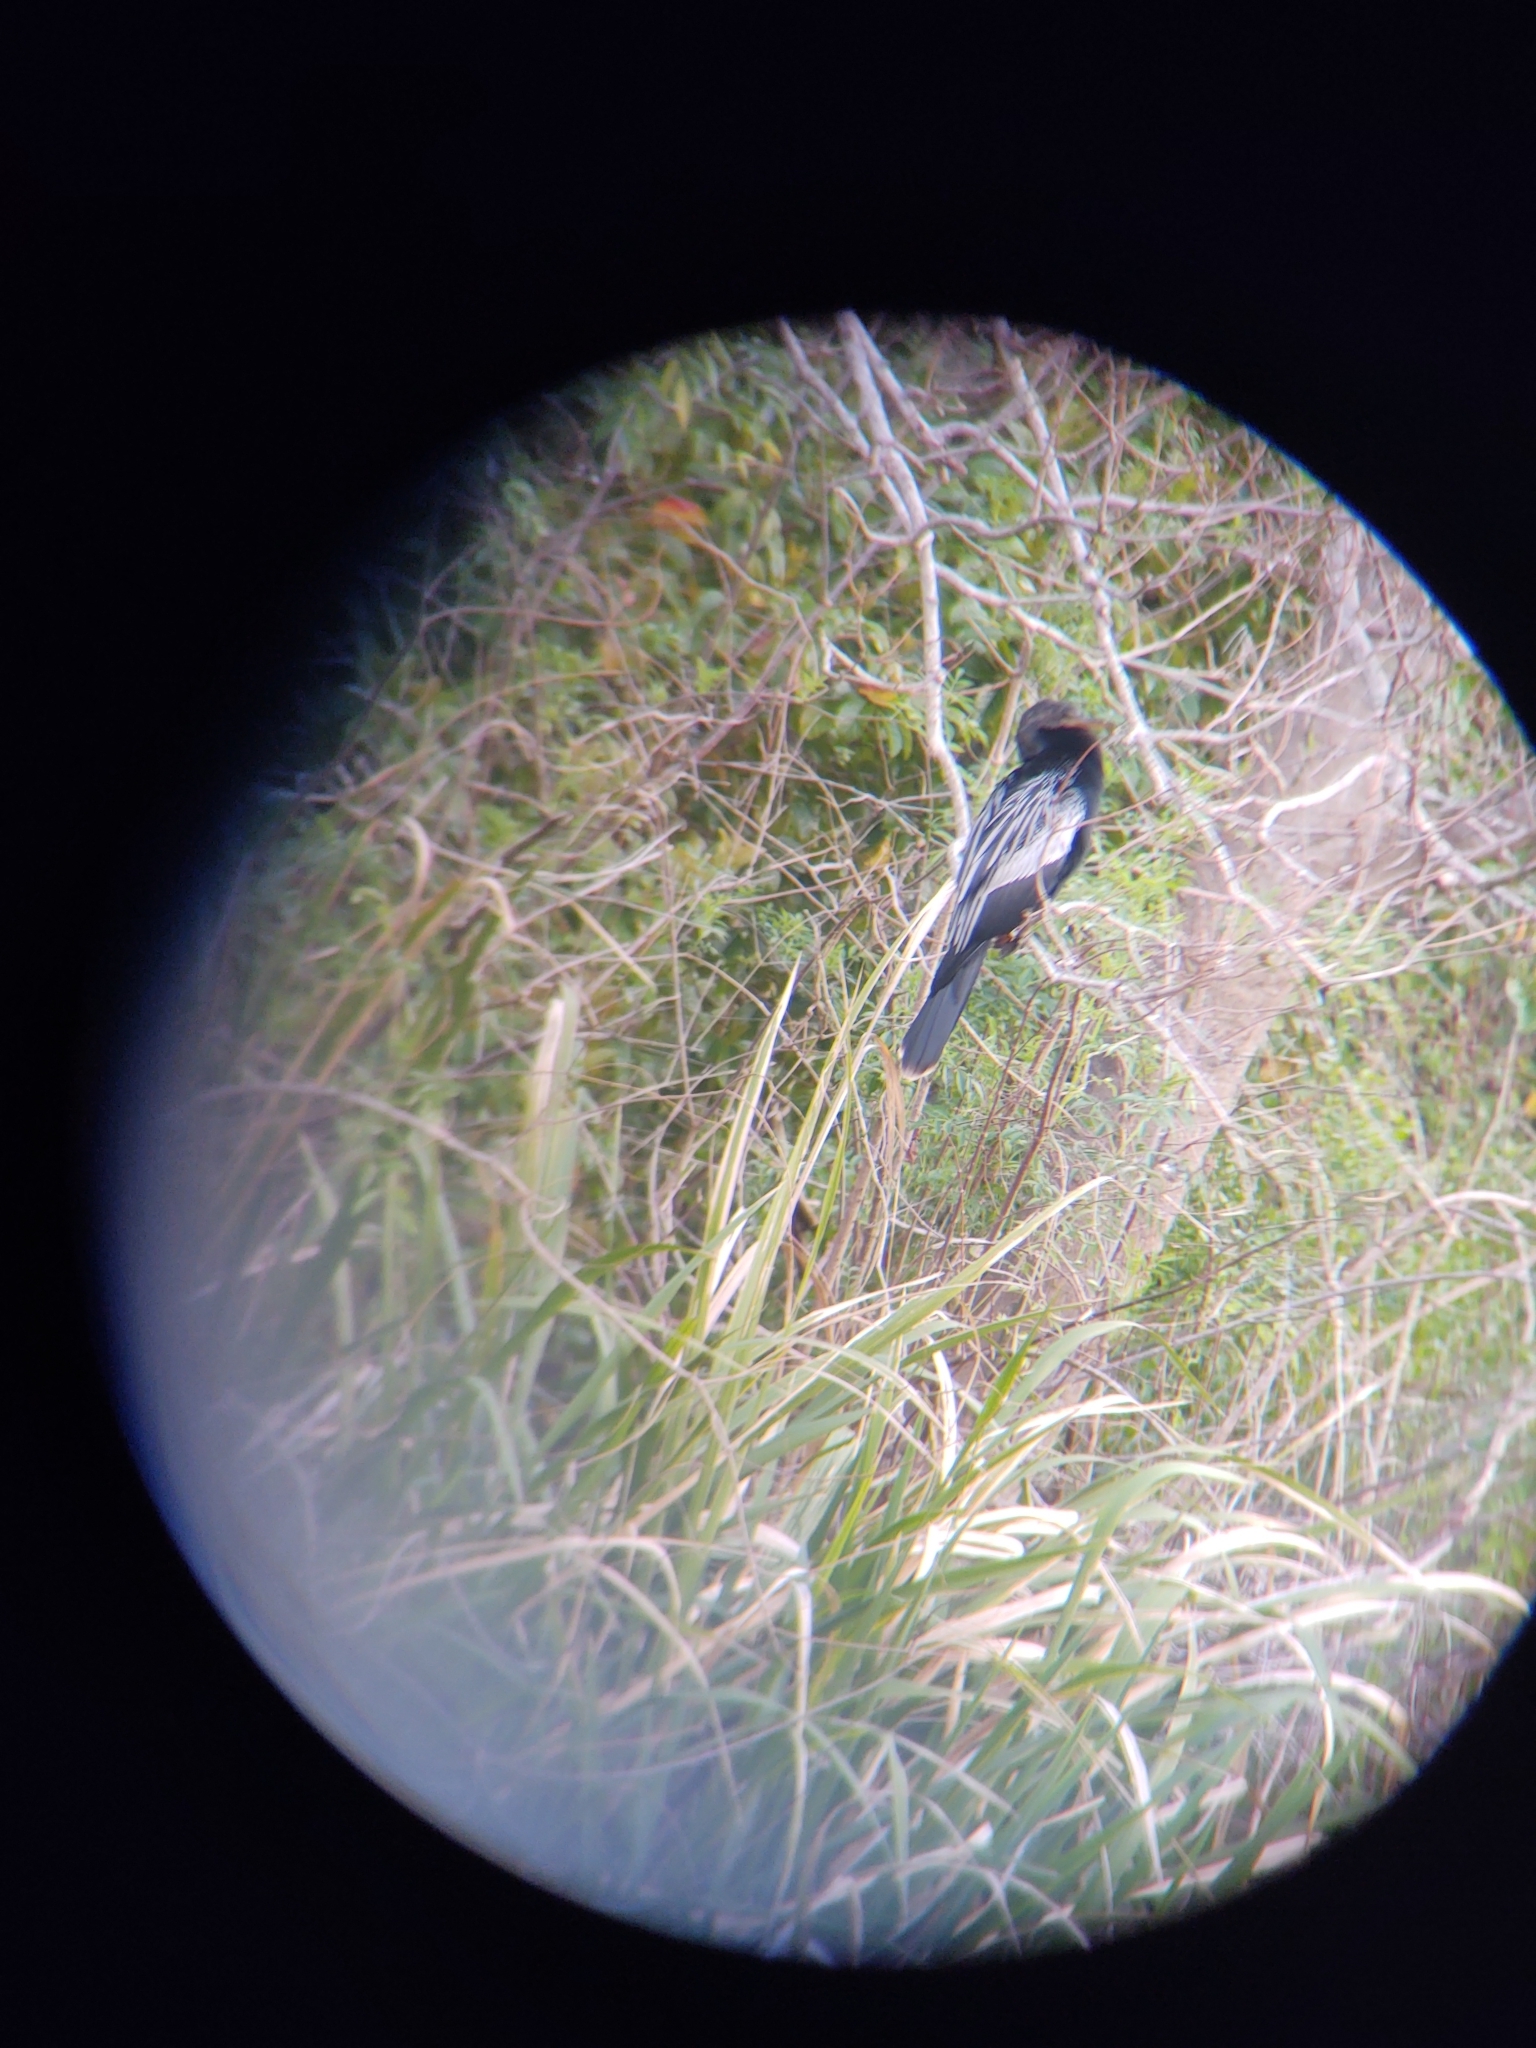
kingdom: Animalia
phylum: Chordata
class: Aves
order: Suliformes
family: Anhingidae
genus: Anhinga
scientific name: Anhinga anhinga
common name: Anhinga
